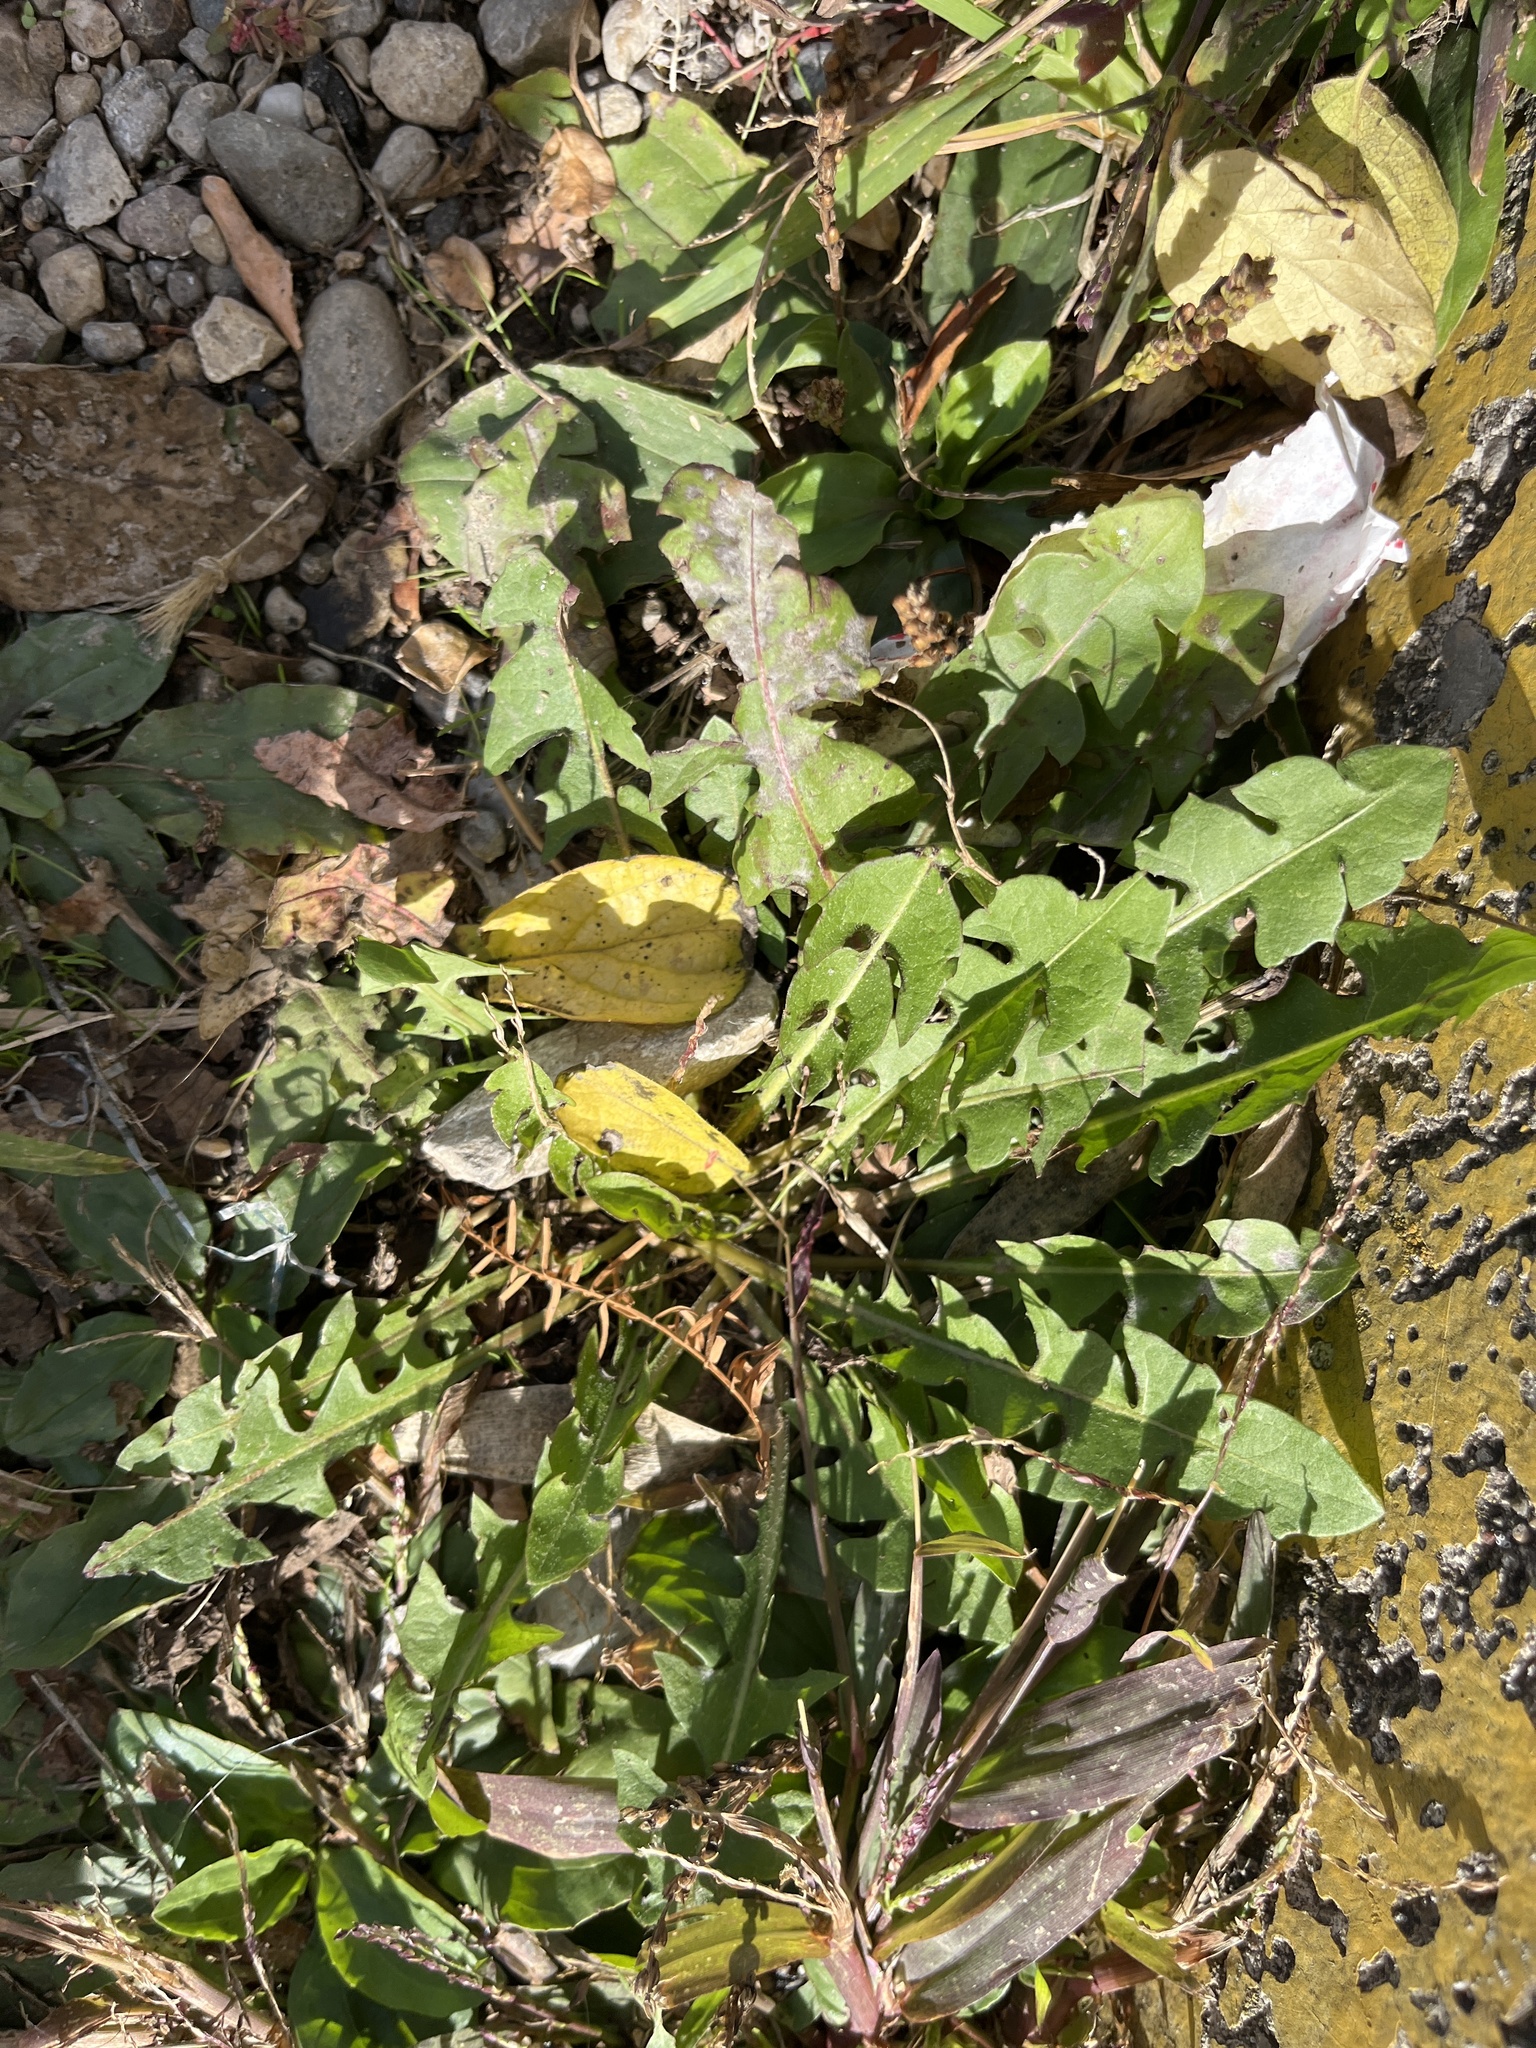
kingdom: Plantae
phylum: Tracheophyta
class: Magnoliopsida
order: Asterales
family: Asteraceae
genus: Taraxacum
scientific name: Taraxacum officinale
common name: Common dandelion
